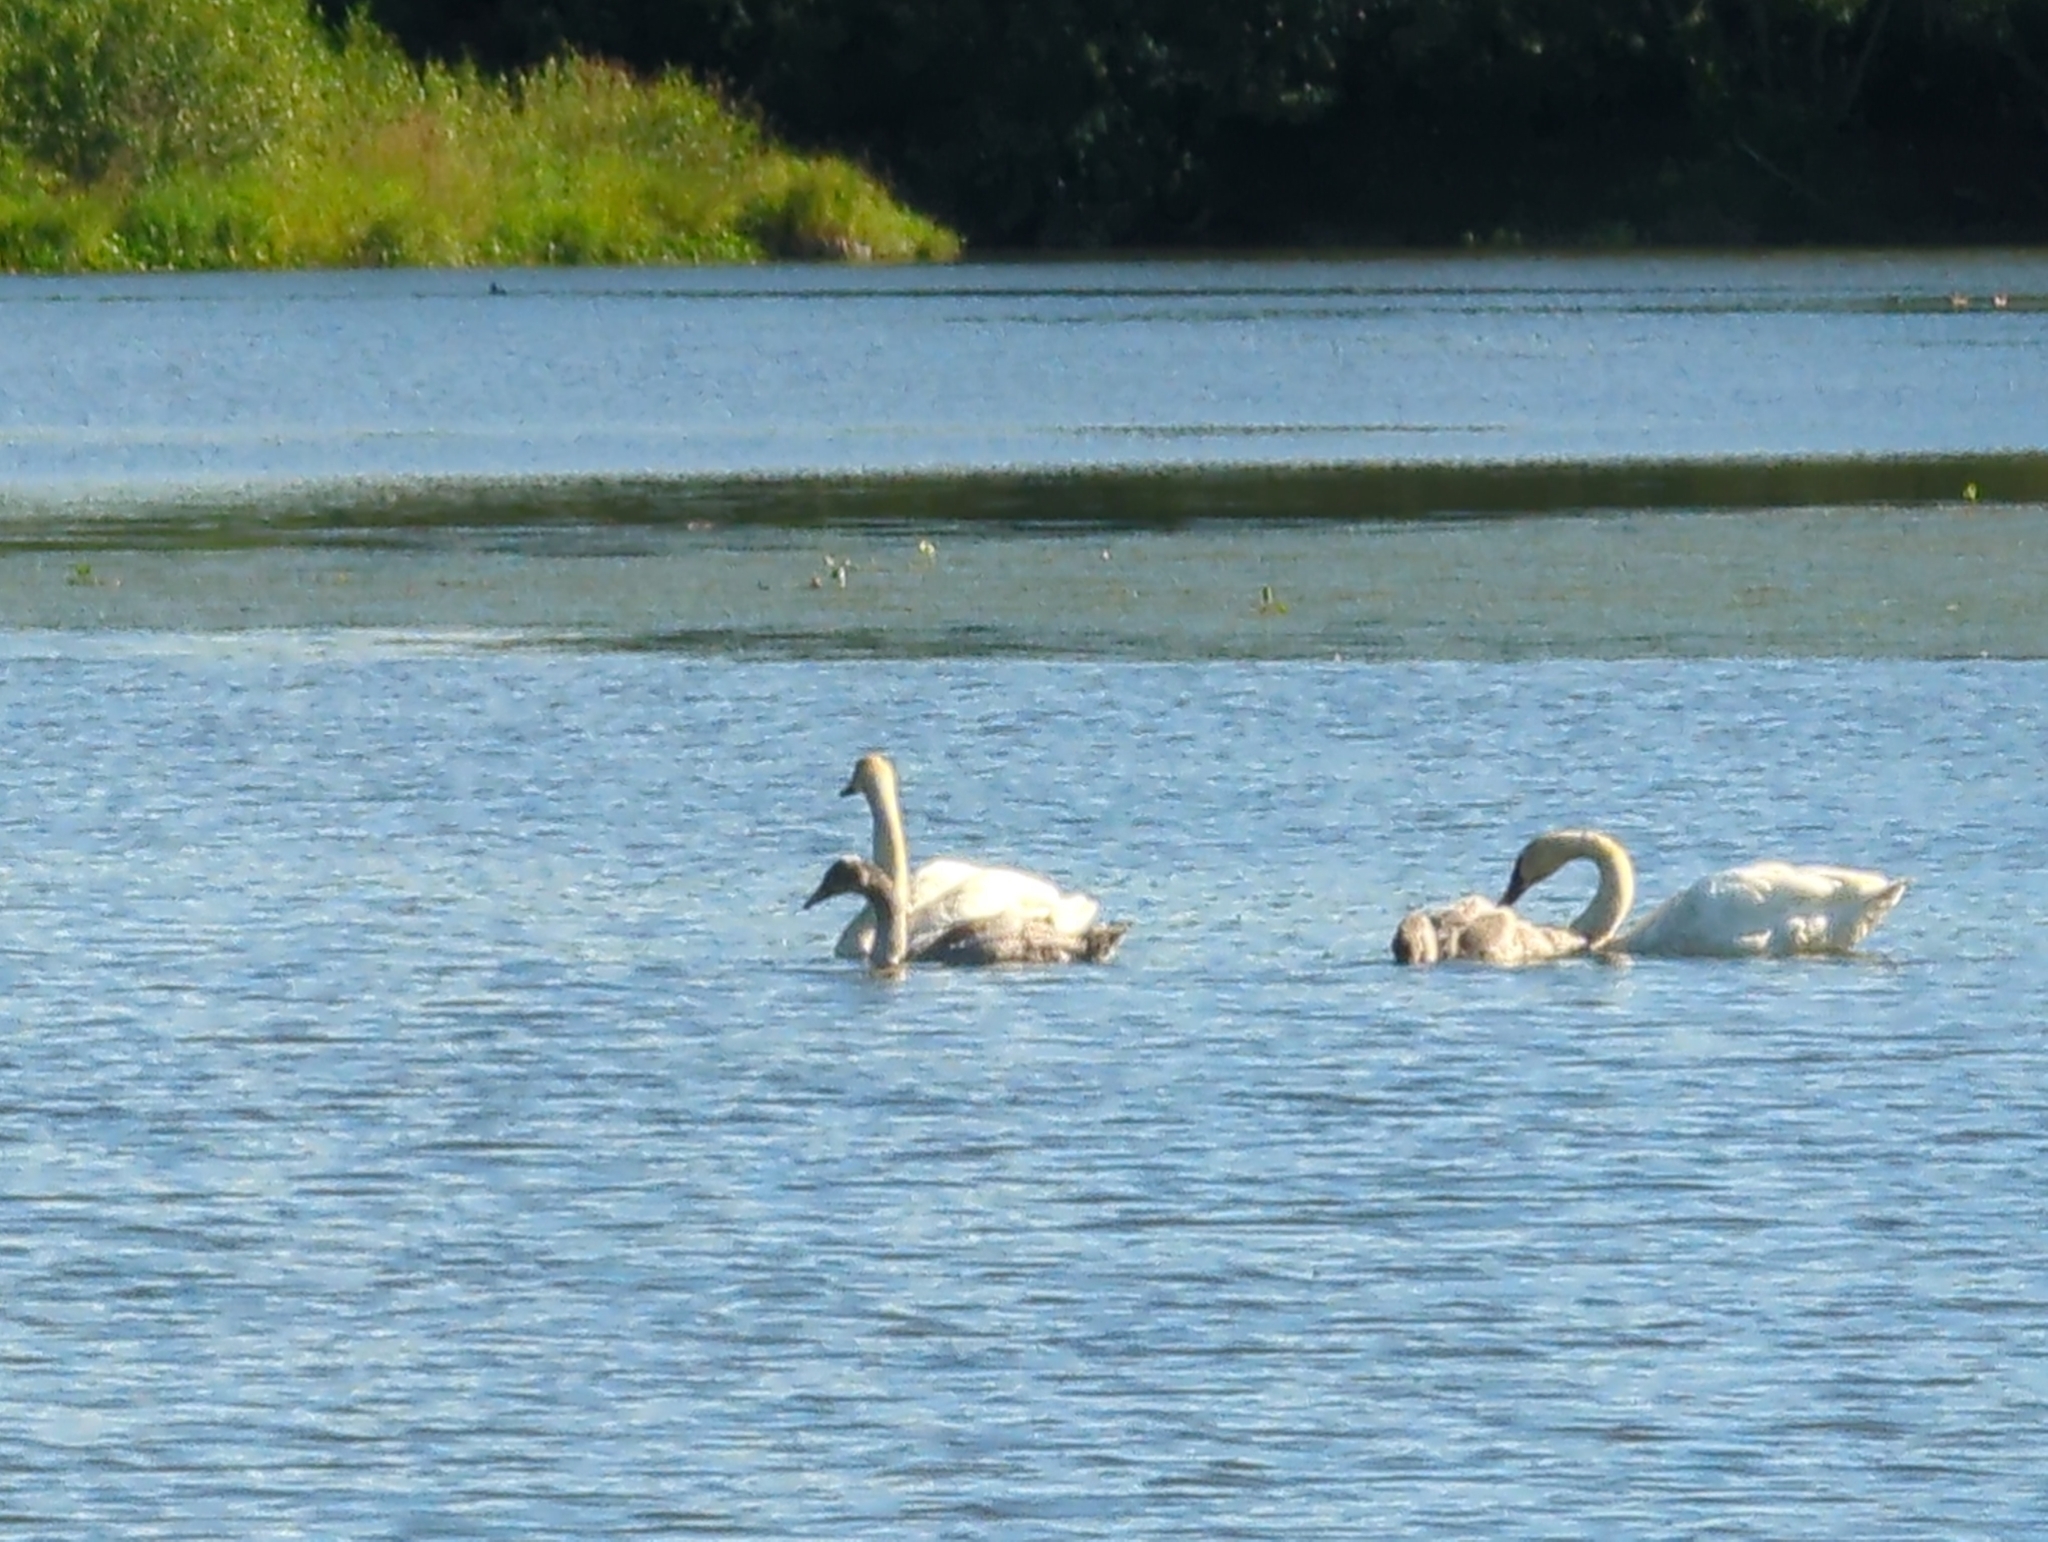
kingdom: Animalia
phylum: Chordata
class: Aves
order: Anseriformes
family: Anatidae
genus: Cygnus
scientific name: Cygnus buccinator
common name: Trumpeter swan
